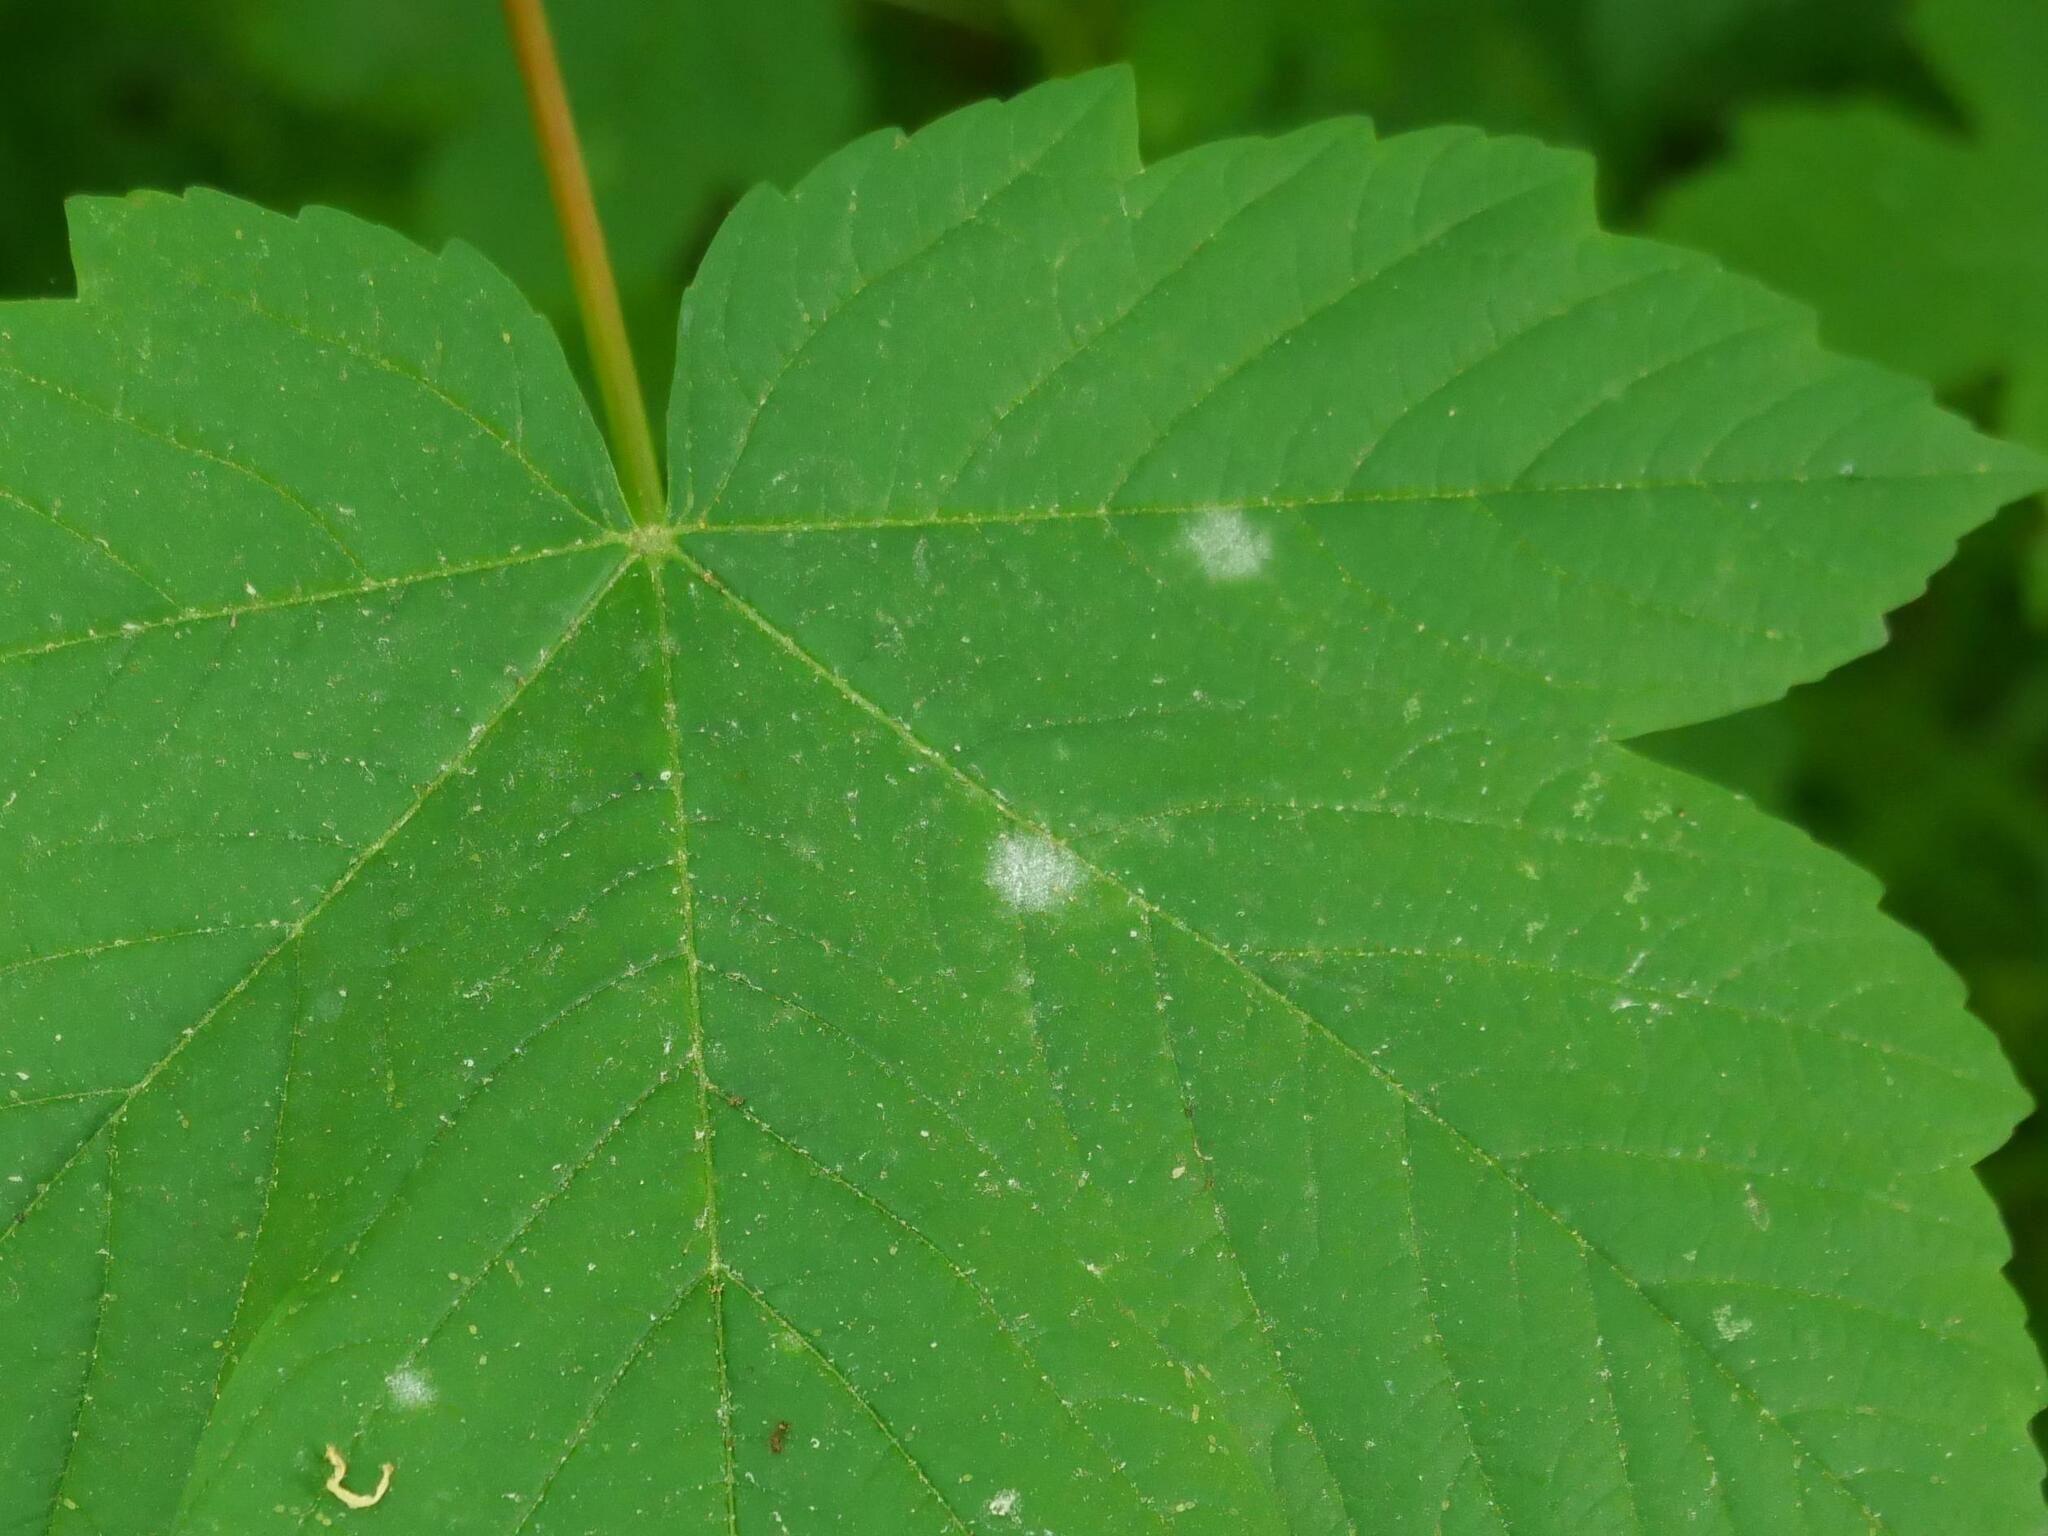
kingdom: Fungi
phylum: Ascomycota
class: Leotiomycetes
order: Helotiales
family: Erysiphaceae
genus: Sawadaea
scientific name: Sawadaea bicornis
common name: Maple mildew
